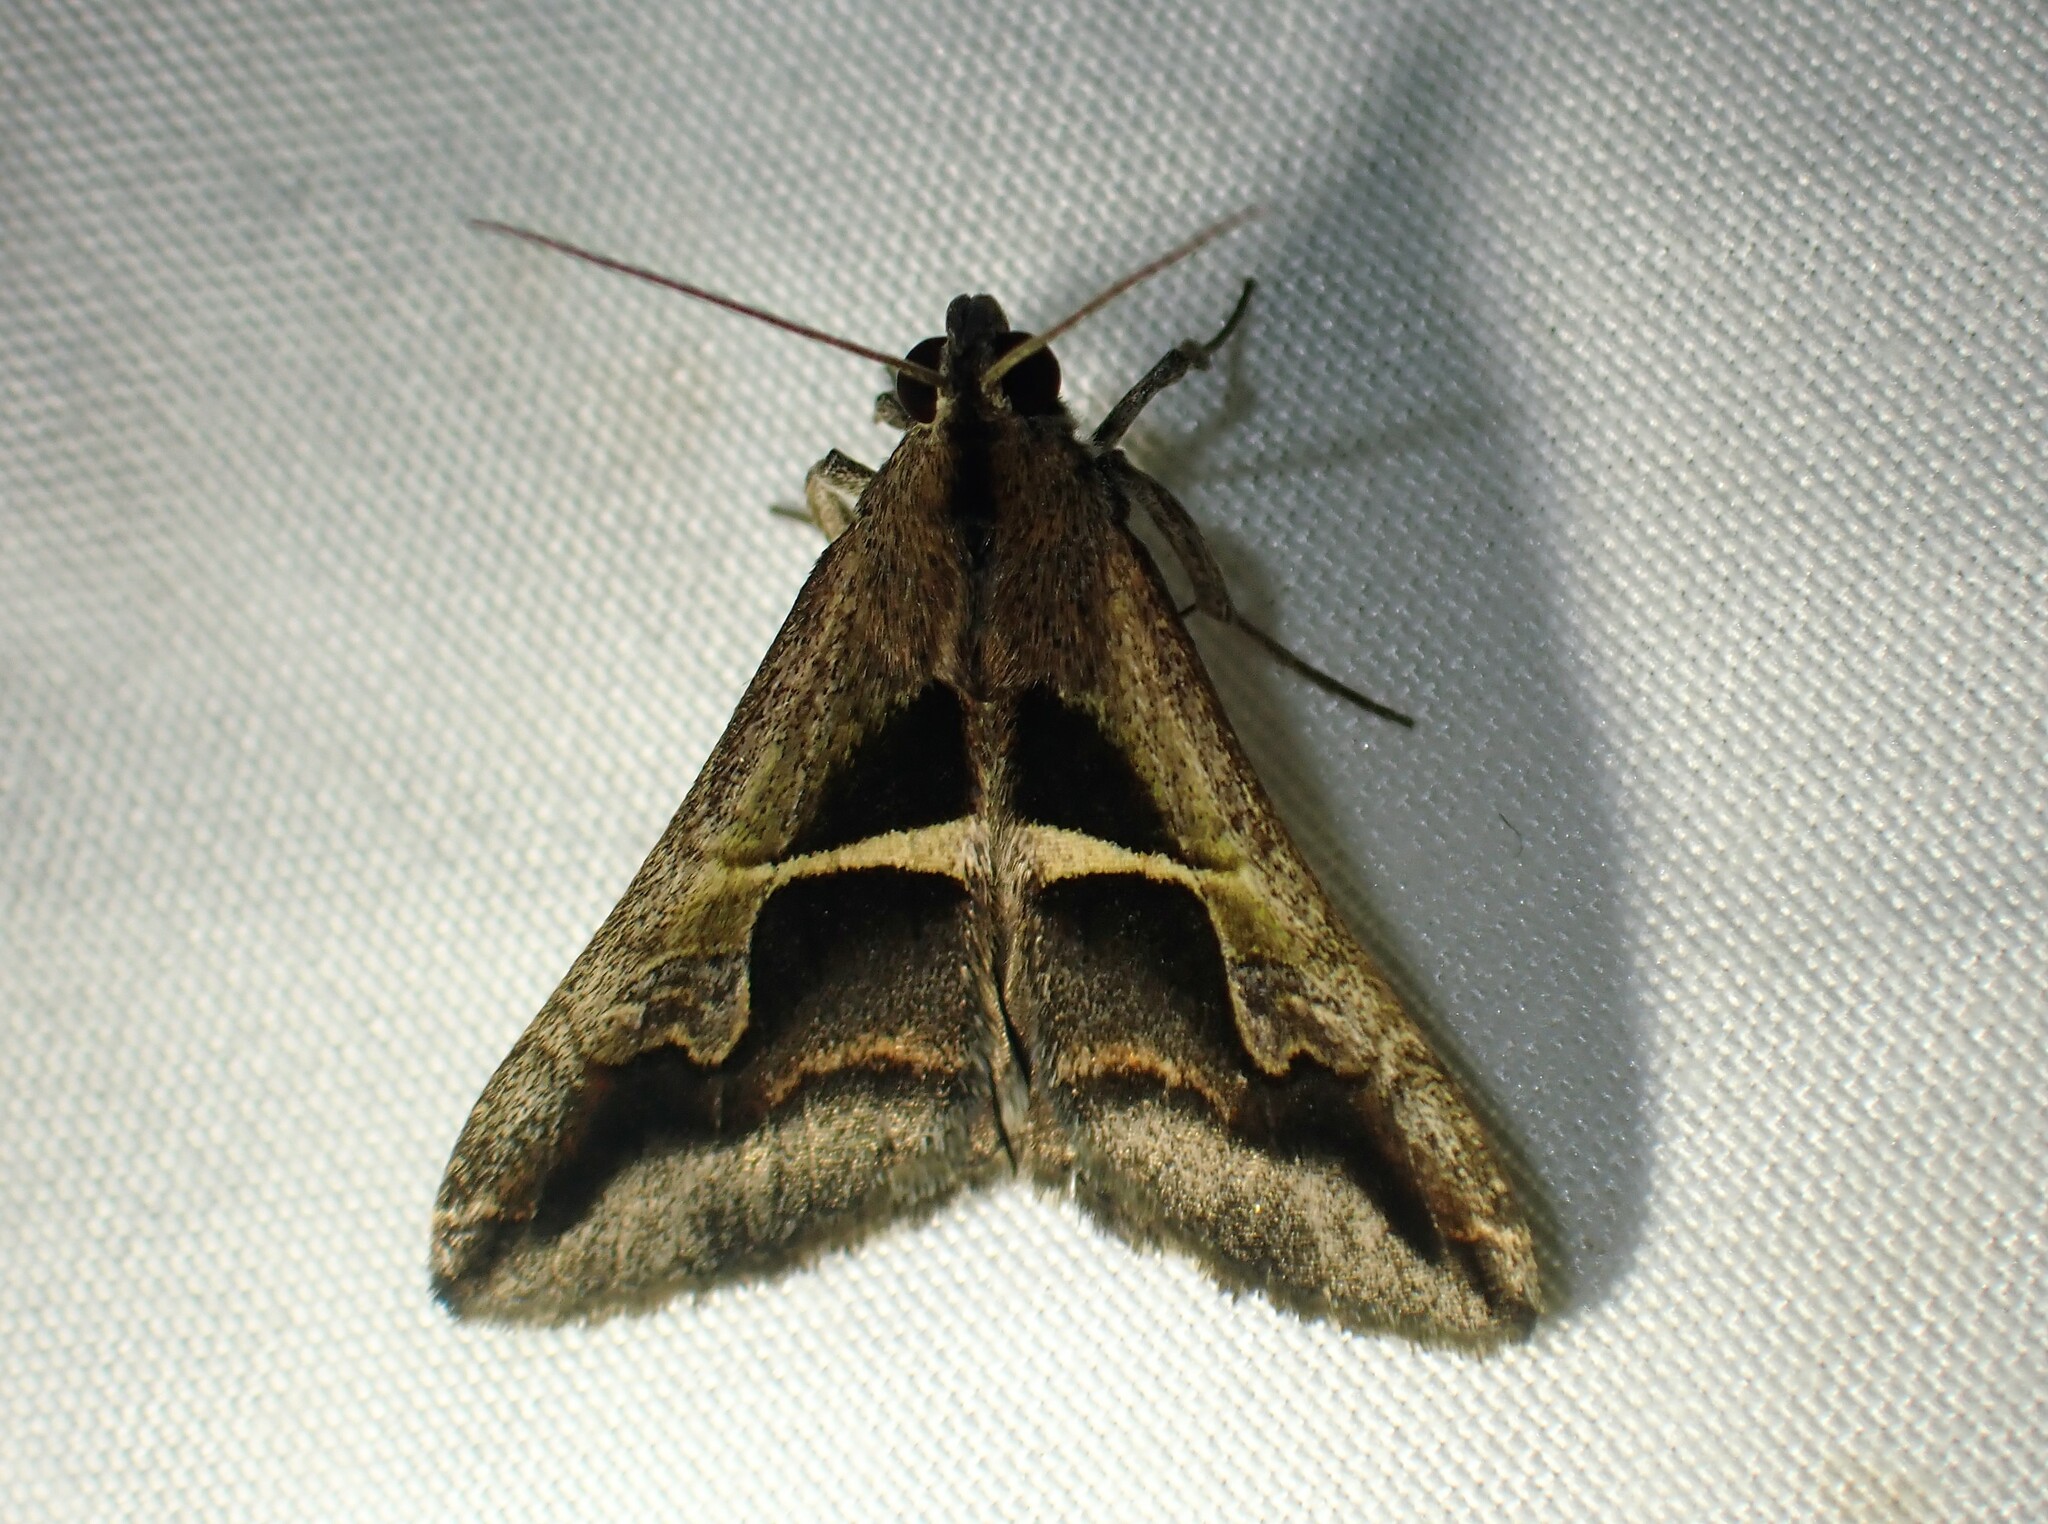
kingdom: Animalia
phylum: Arthropoda
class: Insecta
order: Lepidoptera
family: Erebidae
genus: Melipotis
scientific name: Melipotis cellaris
